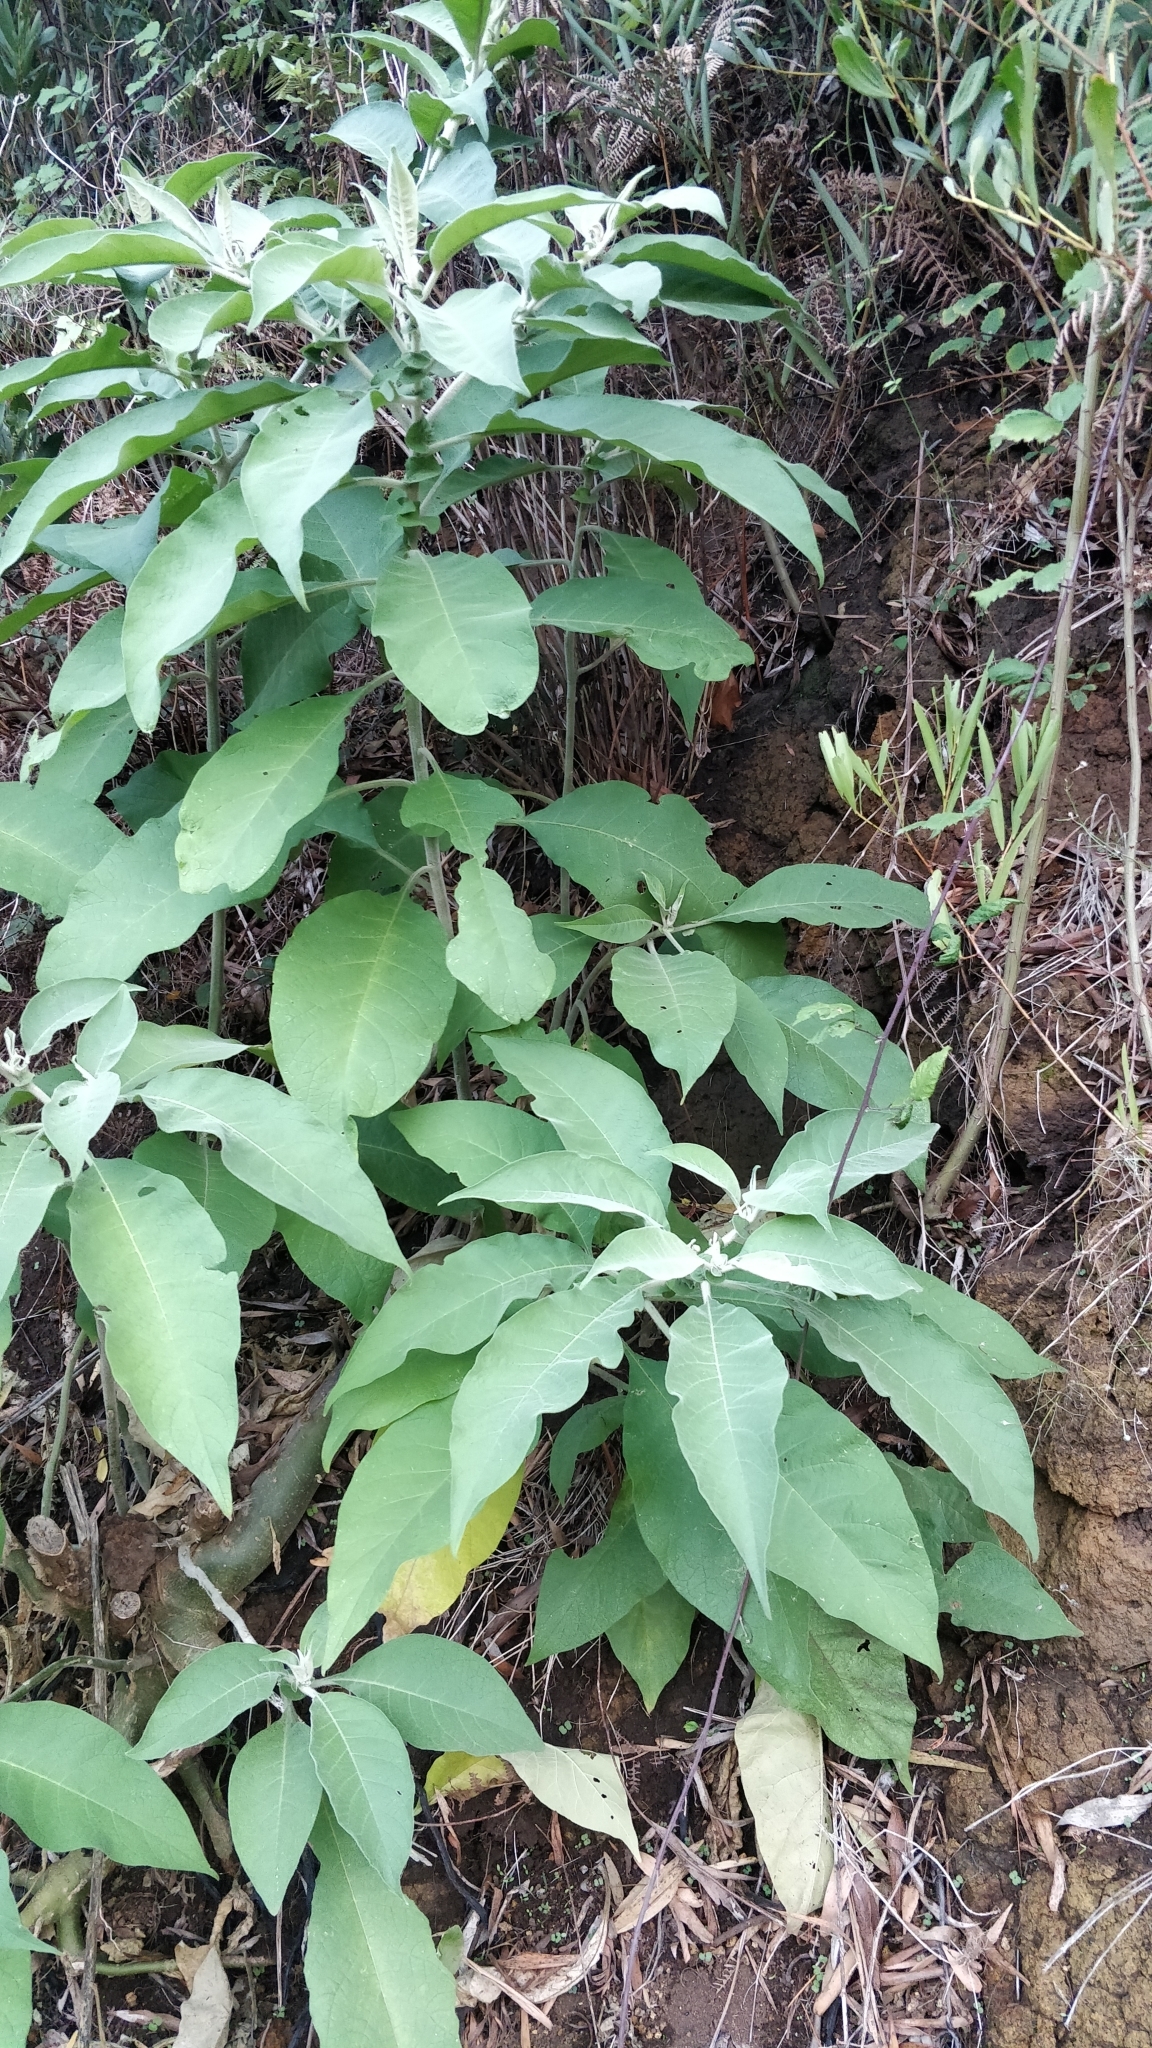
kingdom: Plantae
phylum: Tracheophyta
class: Magnoliopsida
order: Solanales
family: Solanaceae
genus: Solanum
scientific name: Solanum mauritianum
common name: Earleaf nightshade
